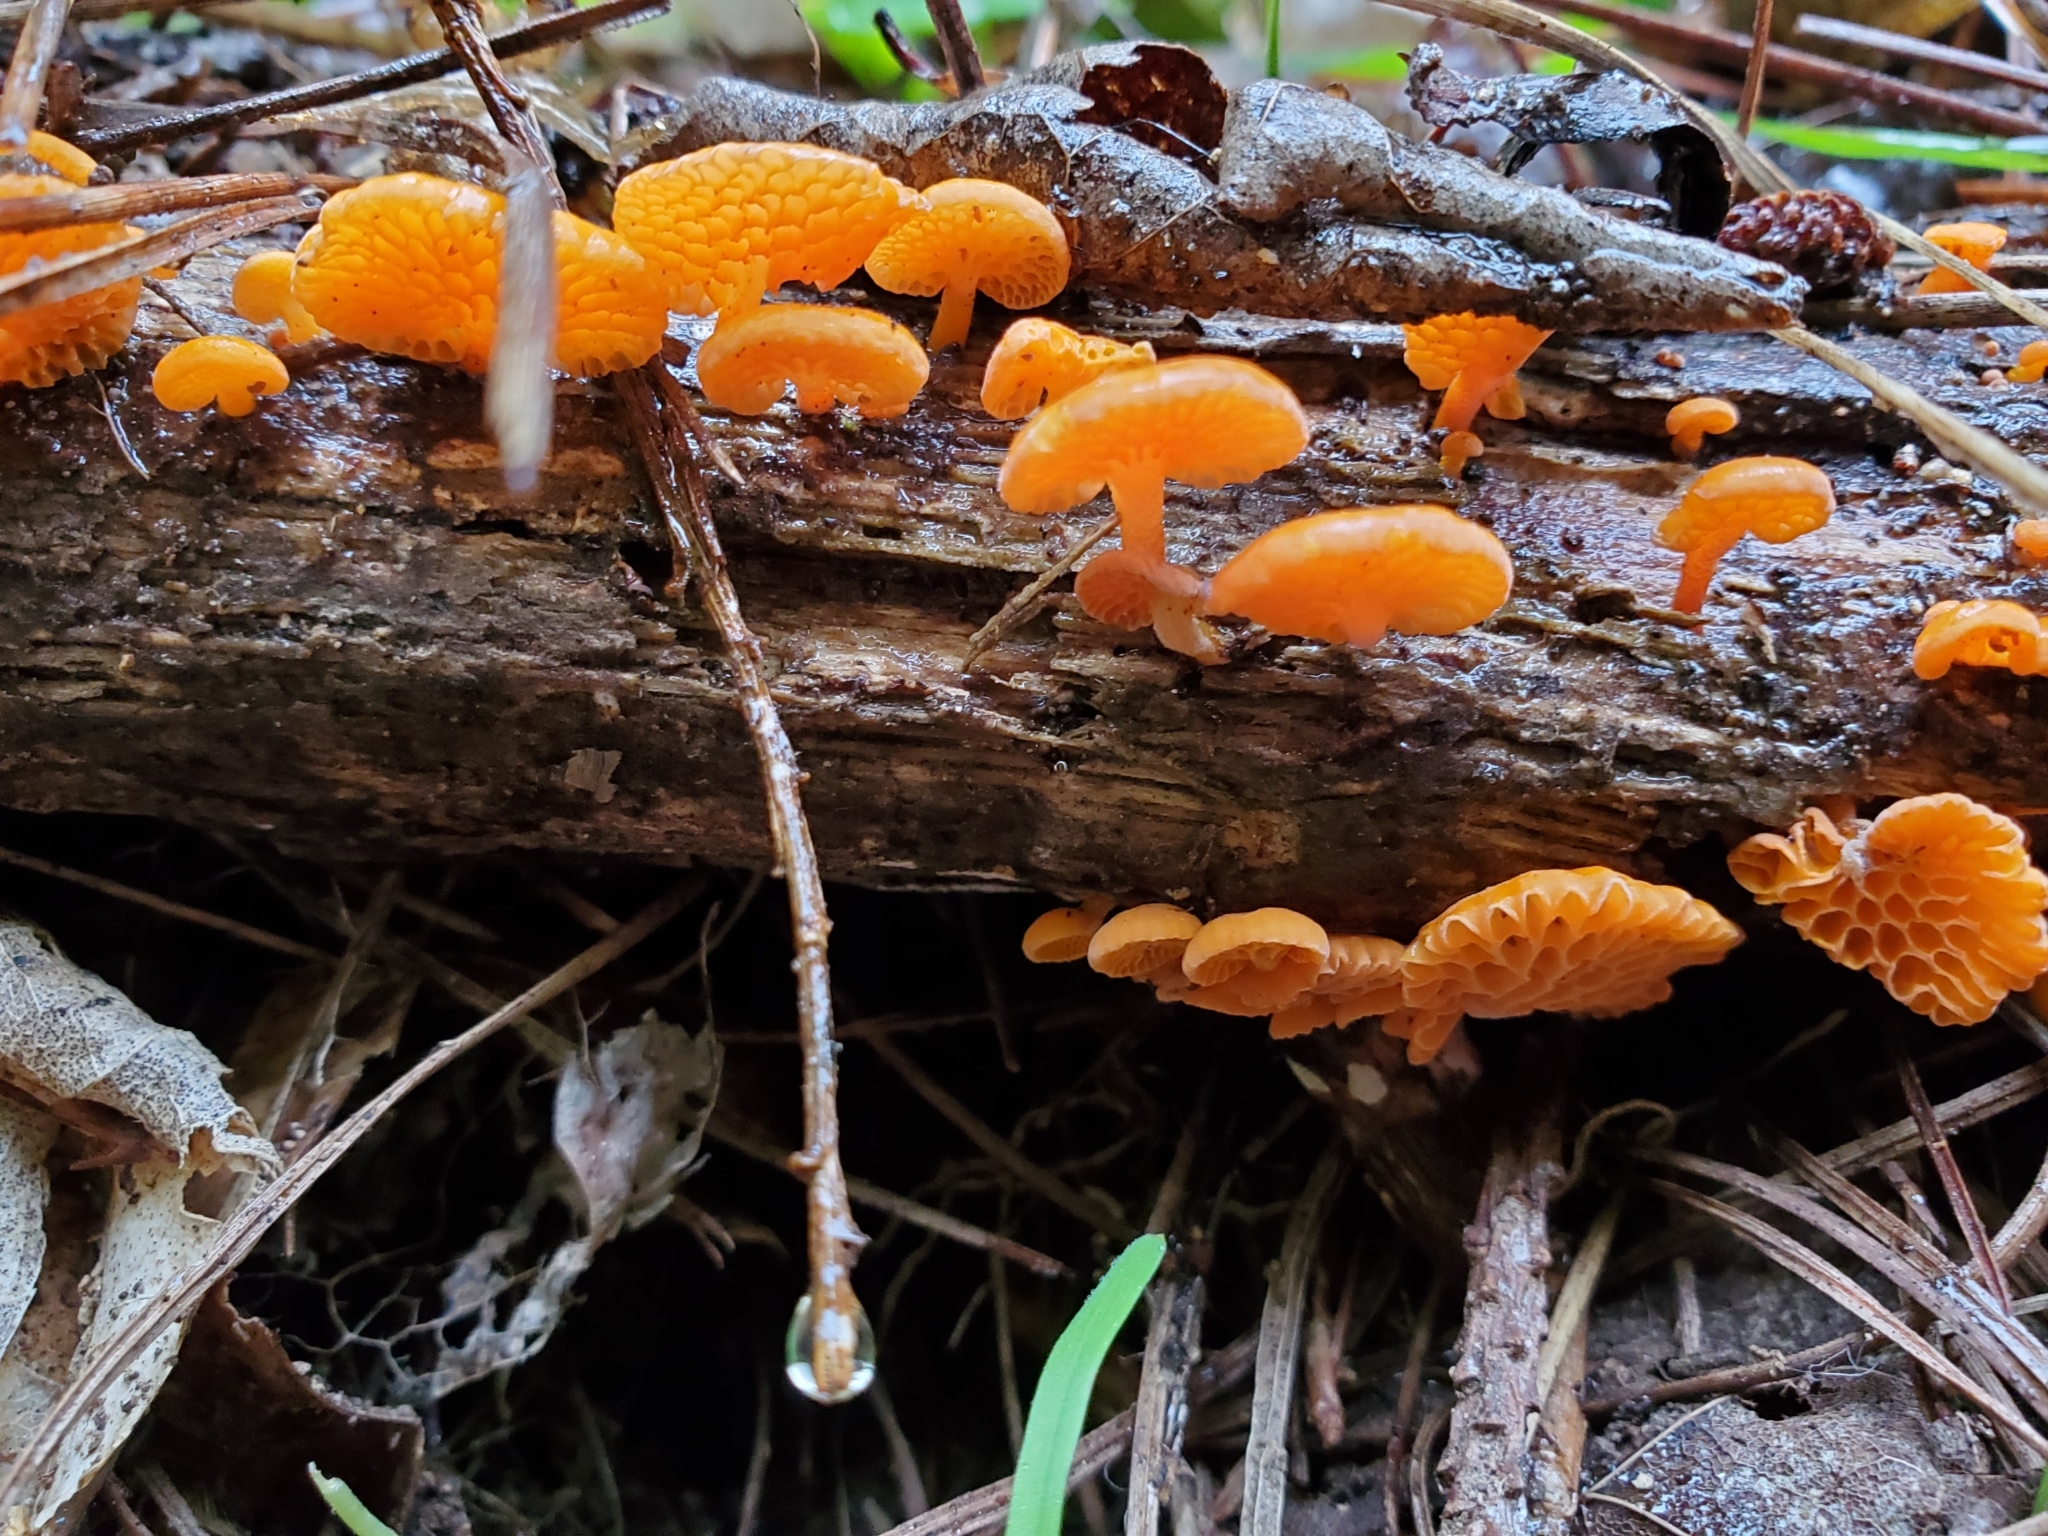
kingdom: Fungi
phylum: Basidiomycota
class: Agaricomycetes
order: Agaricales
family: Mycenaceae
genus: Favolaschia
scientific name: Favolaschia claudopus
